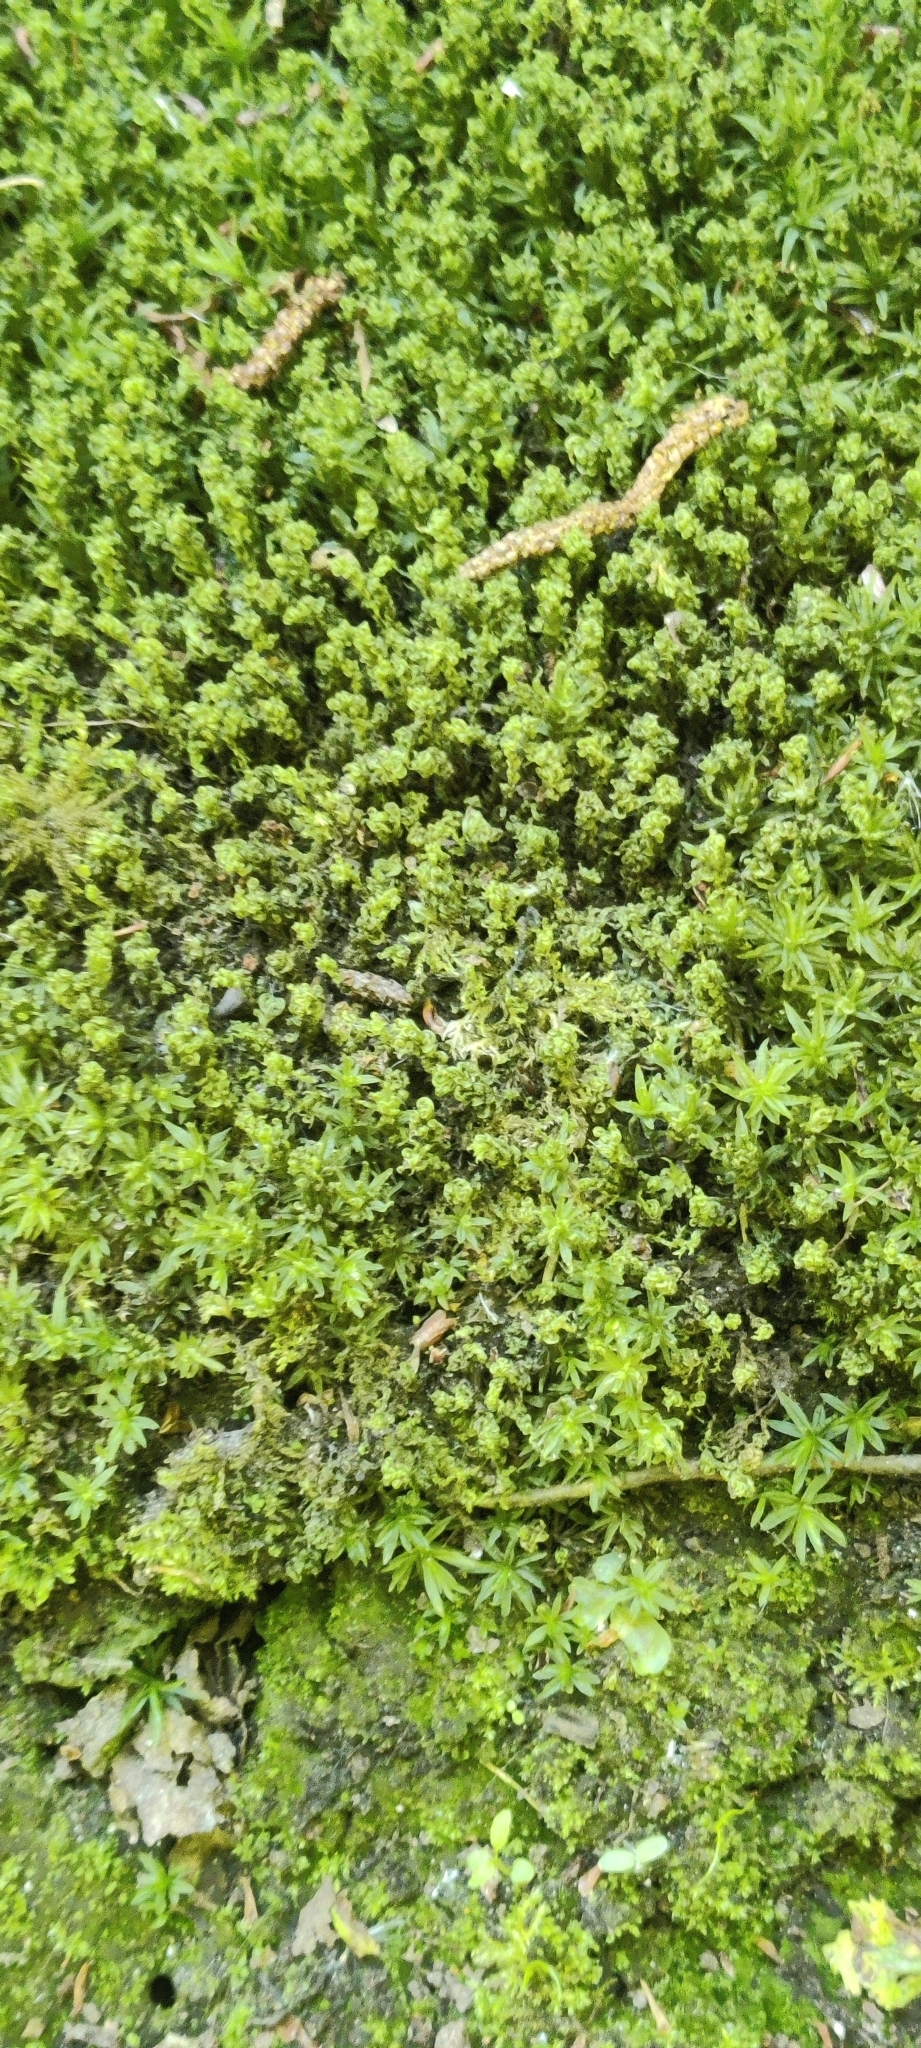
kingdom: Plantae
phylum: Bryophyta
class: Bryopsida
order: Bryales
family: Mniaceae
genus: Plagiomnium
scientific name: Plagiomnium undulatum
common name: Hart's-tongue thyme-moss
